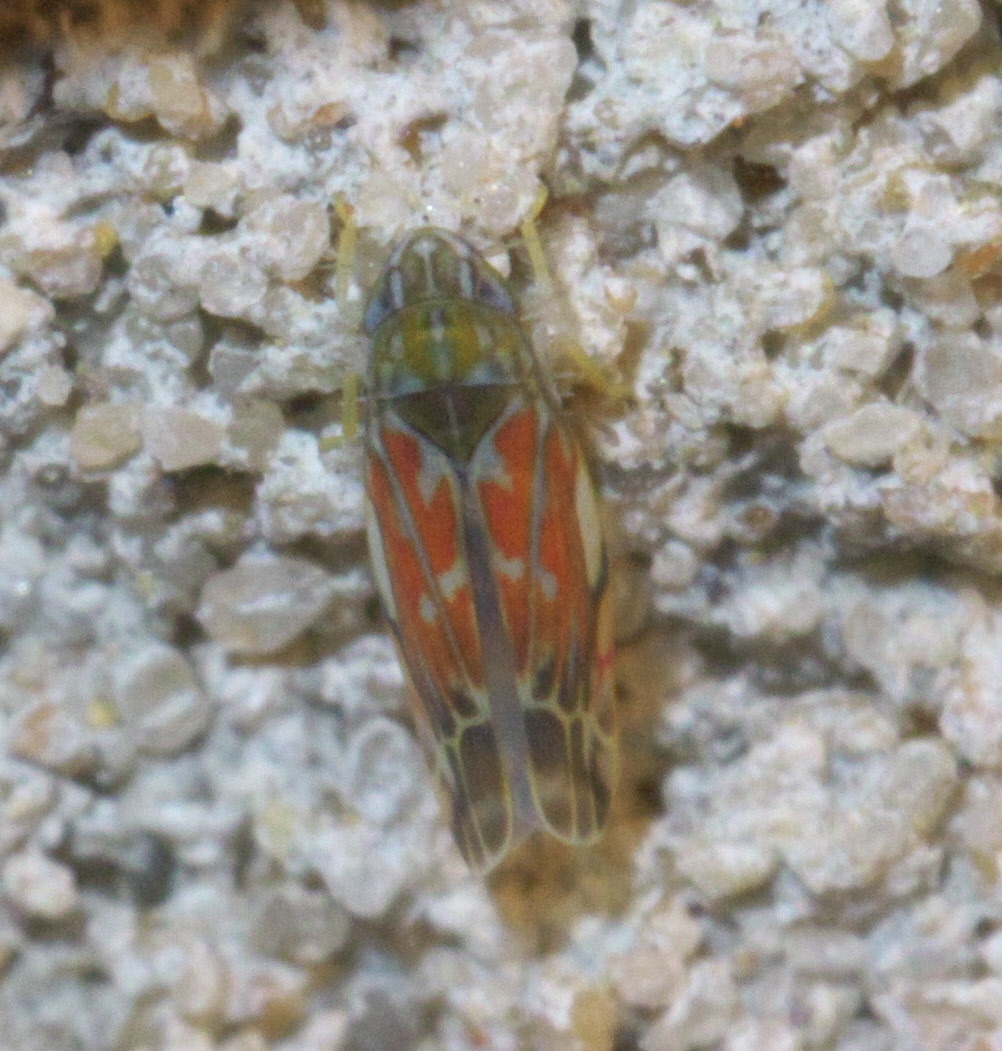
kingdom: Animalia
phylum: Arthropoda
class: Insecta
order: Hemiptera
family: Cicadellidae
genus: Erasmoneura
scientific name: Erasmoneura vulnerata
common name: The wounded leafhopper
